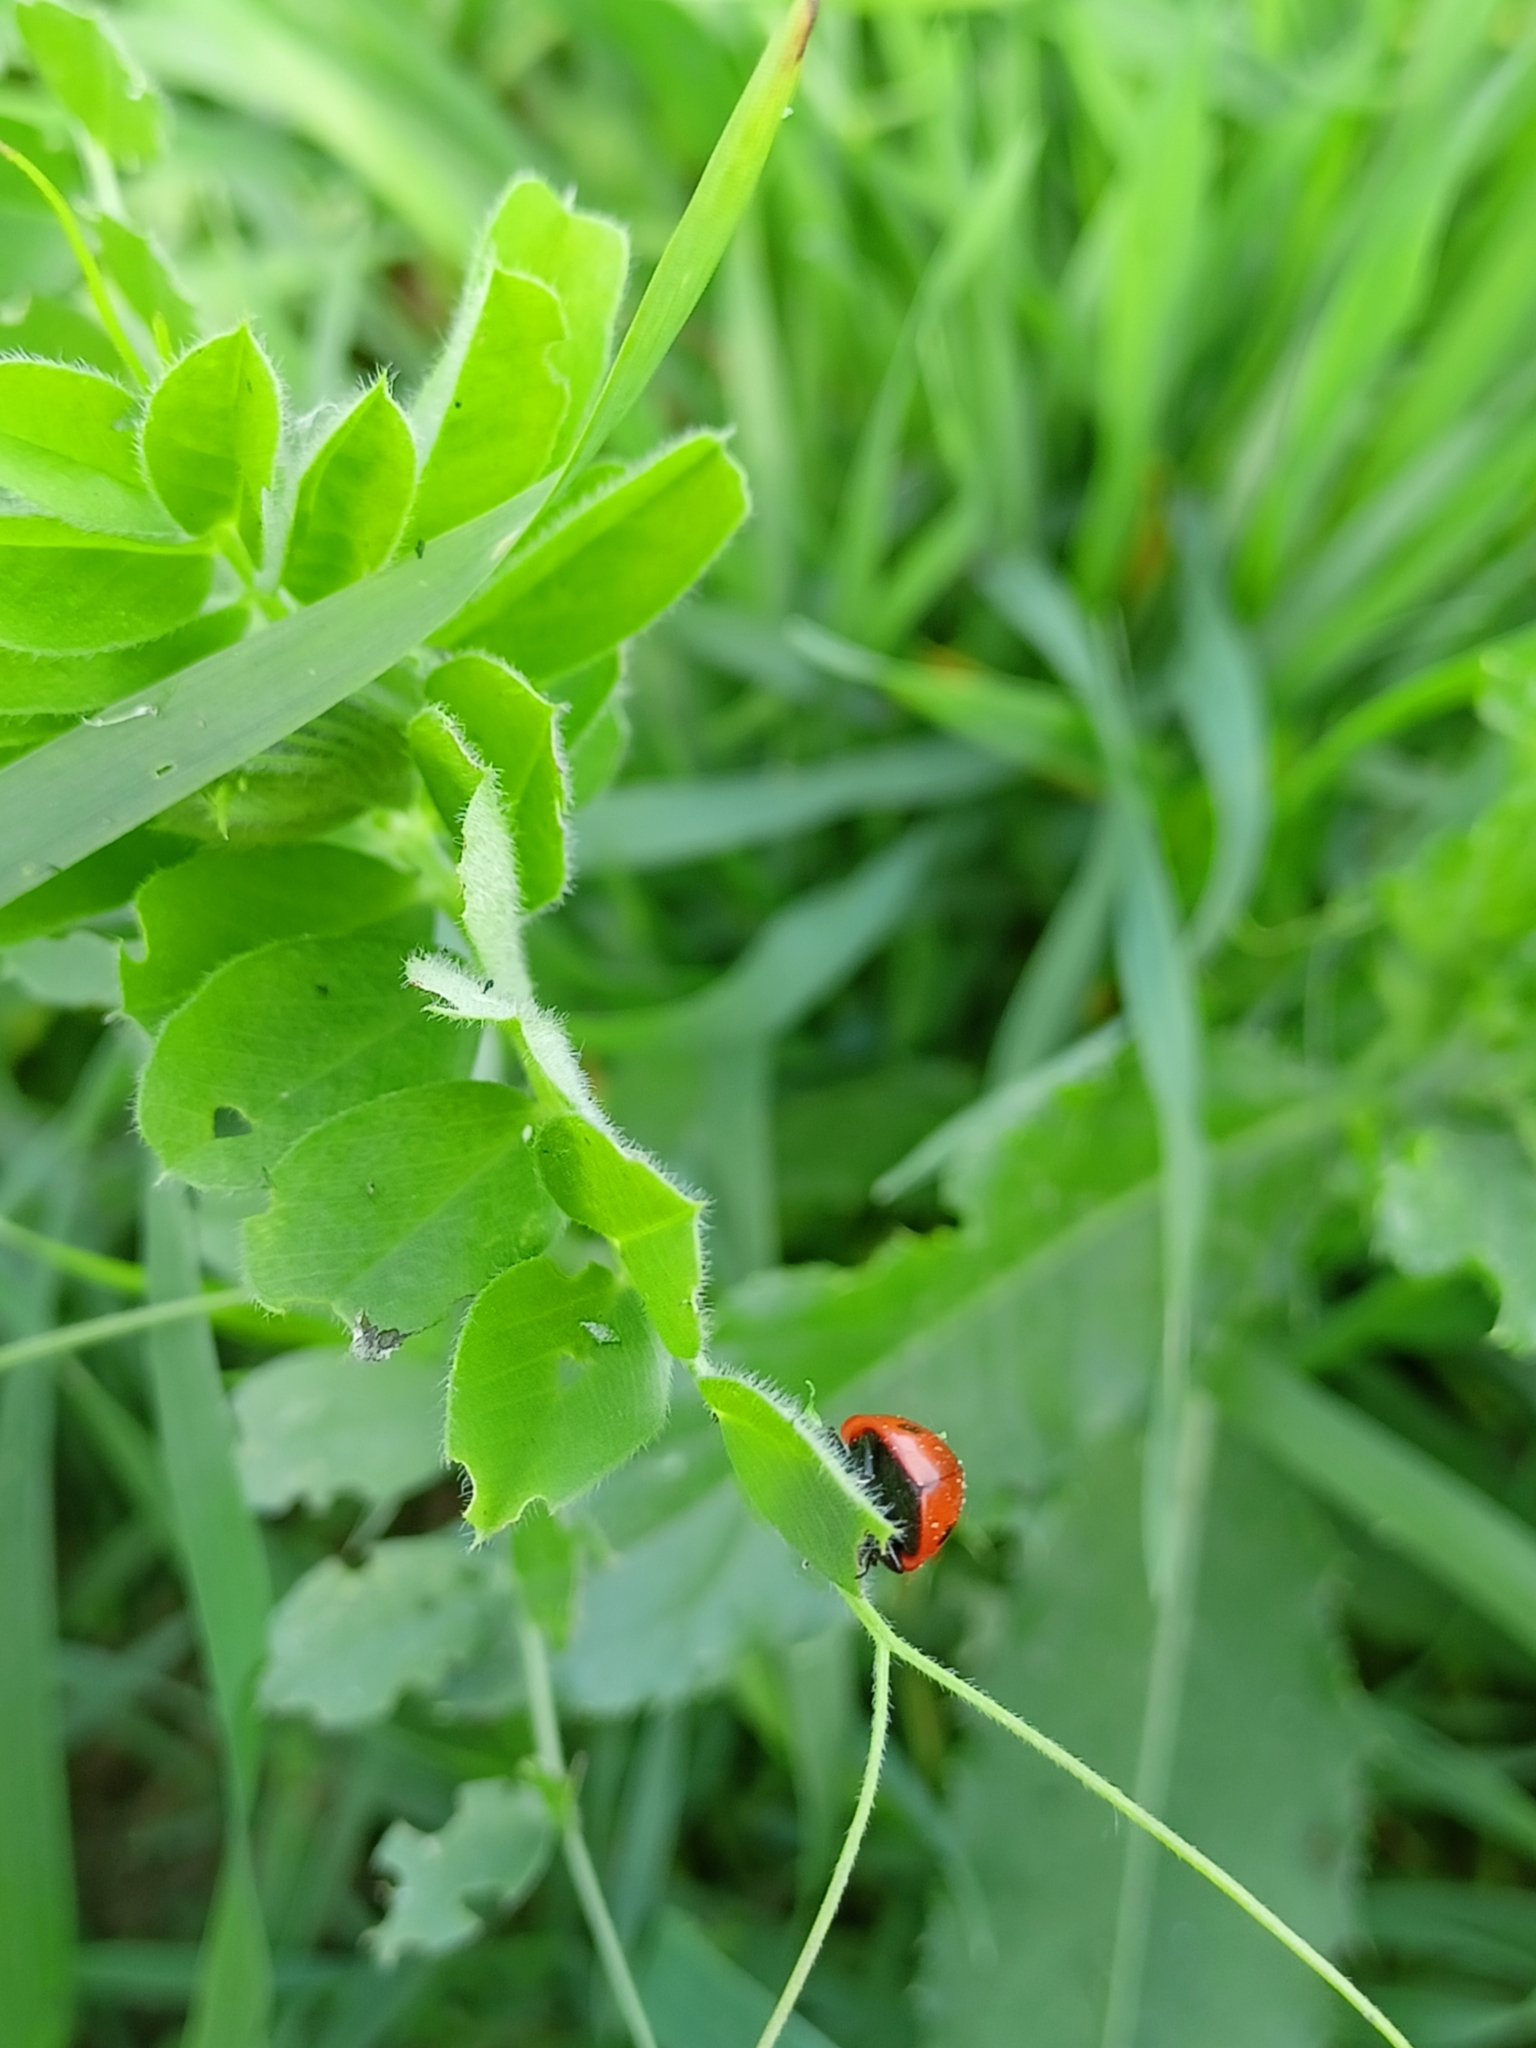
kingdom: Animalia
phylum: Arthropoda
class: Insecta
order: Coleoptera
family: Coccinellidae
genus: Coccinella
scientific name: Coccinella septempunctata
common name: Sevenspotted lady beetle
